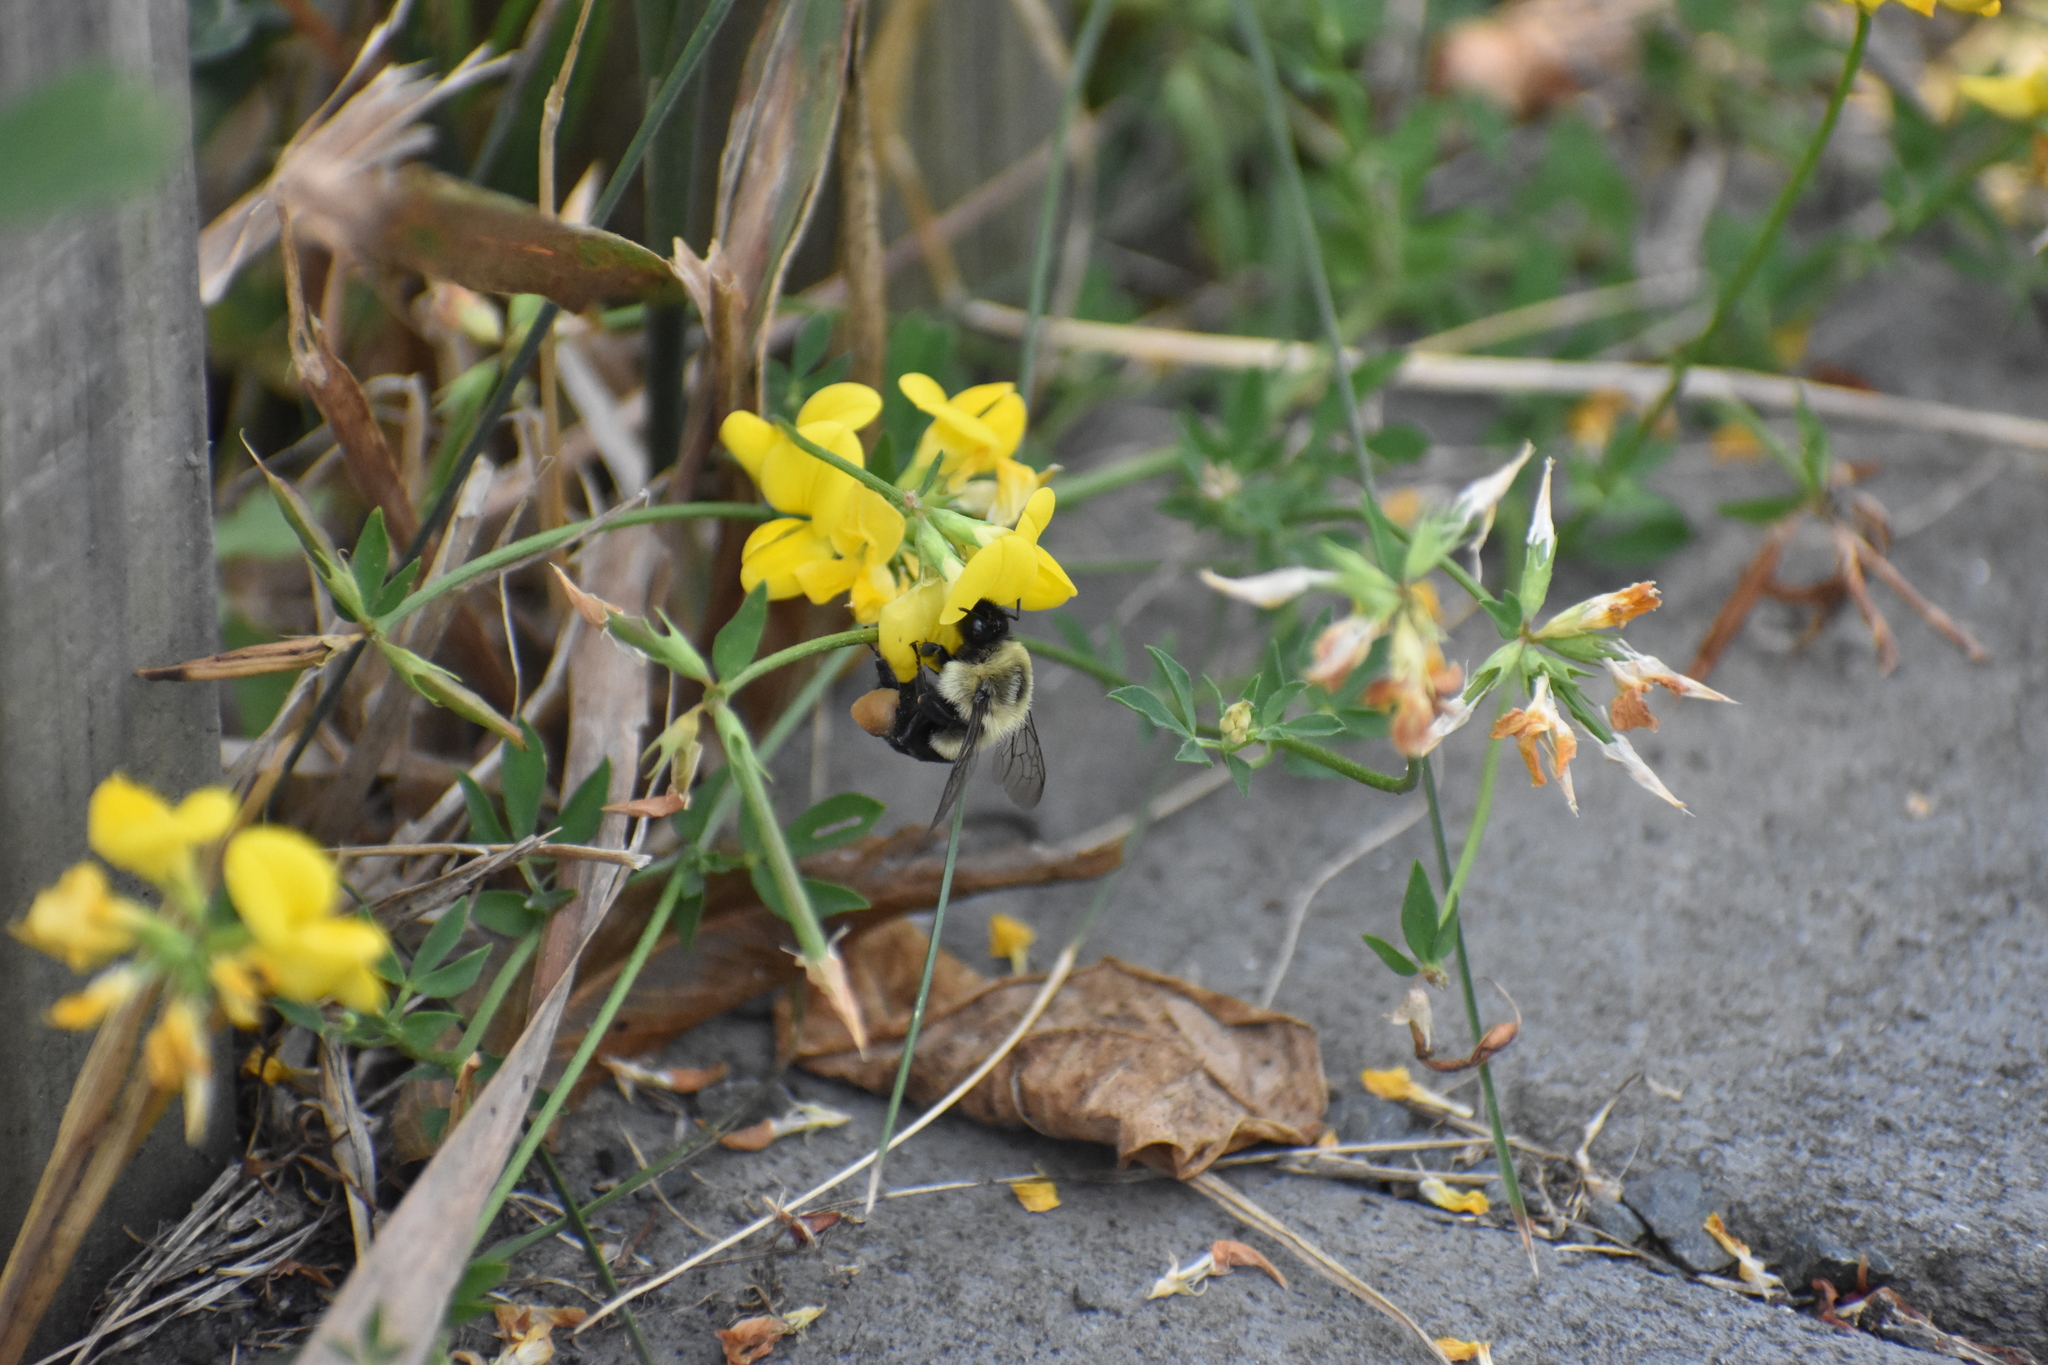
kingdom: Animalia
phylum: Arthropoda
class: Insecta
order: Hymenoptera
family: Apidae
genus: Bombus
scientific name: Bombus impatiens
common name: Common eastern bumble bee
